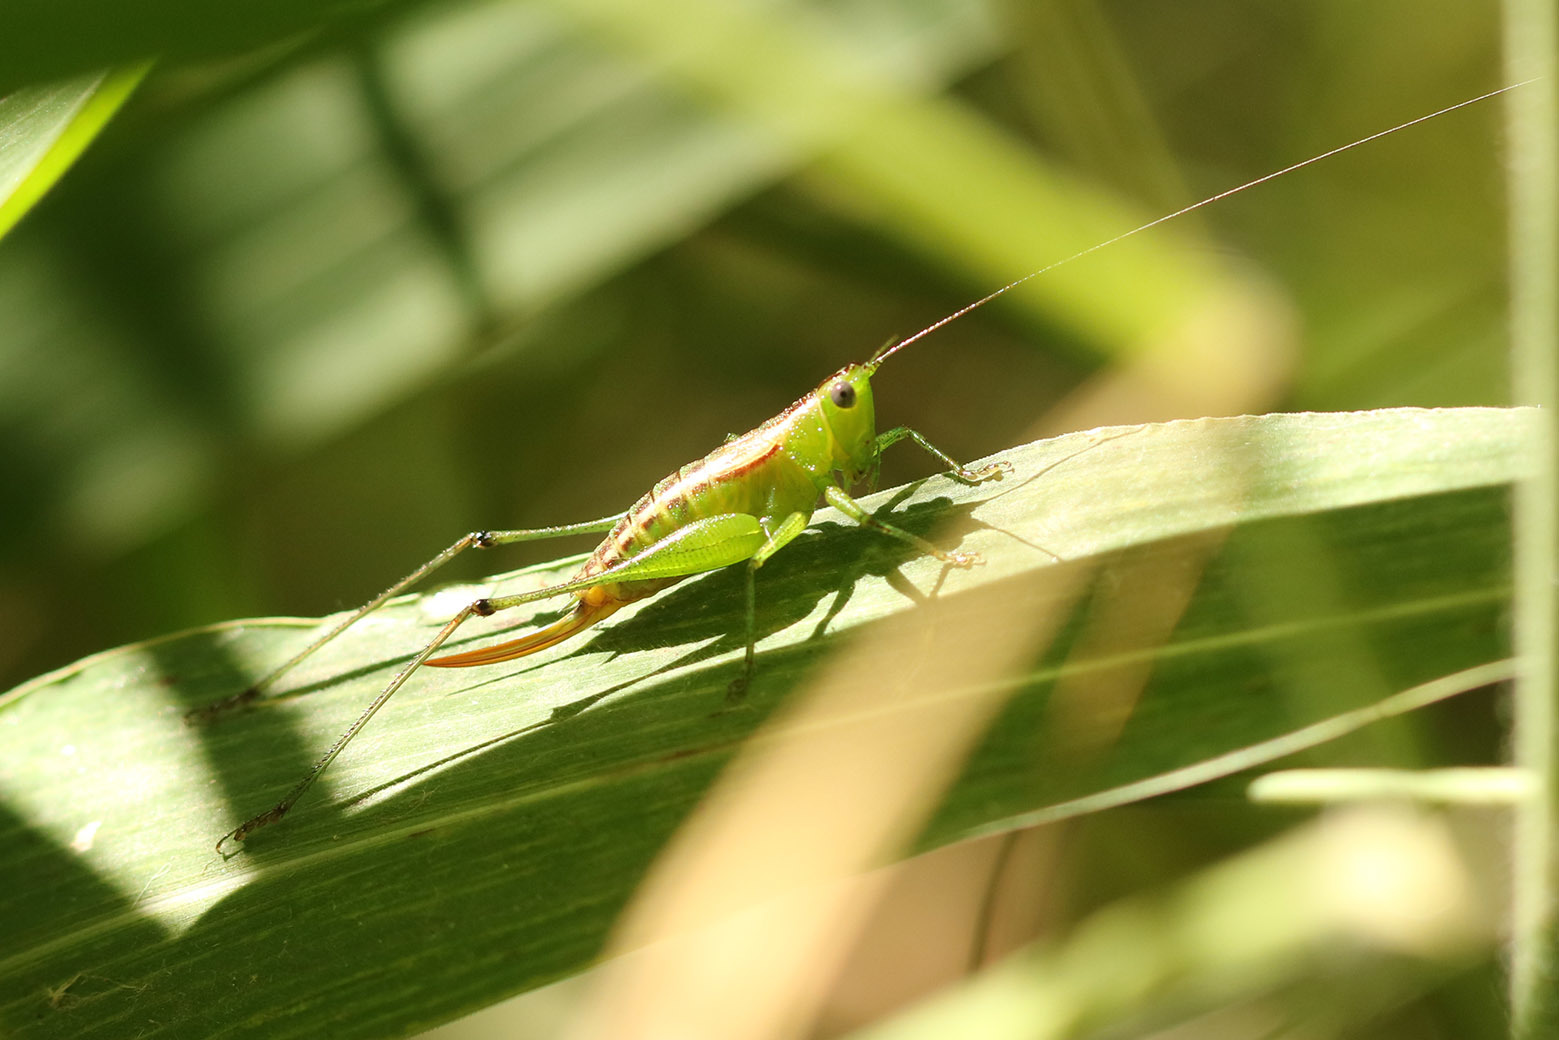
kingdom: Animalia
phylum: Arthropoda
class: Insecta
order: Orthoptera
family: Tettigoniidae
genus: Conocephalus
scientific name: Conocephalus ochrotelus
